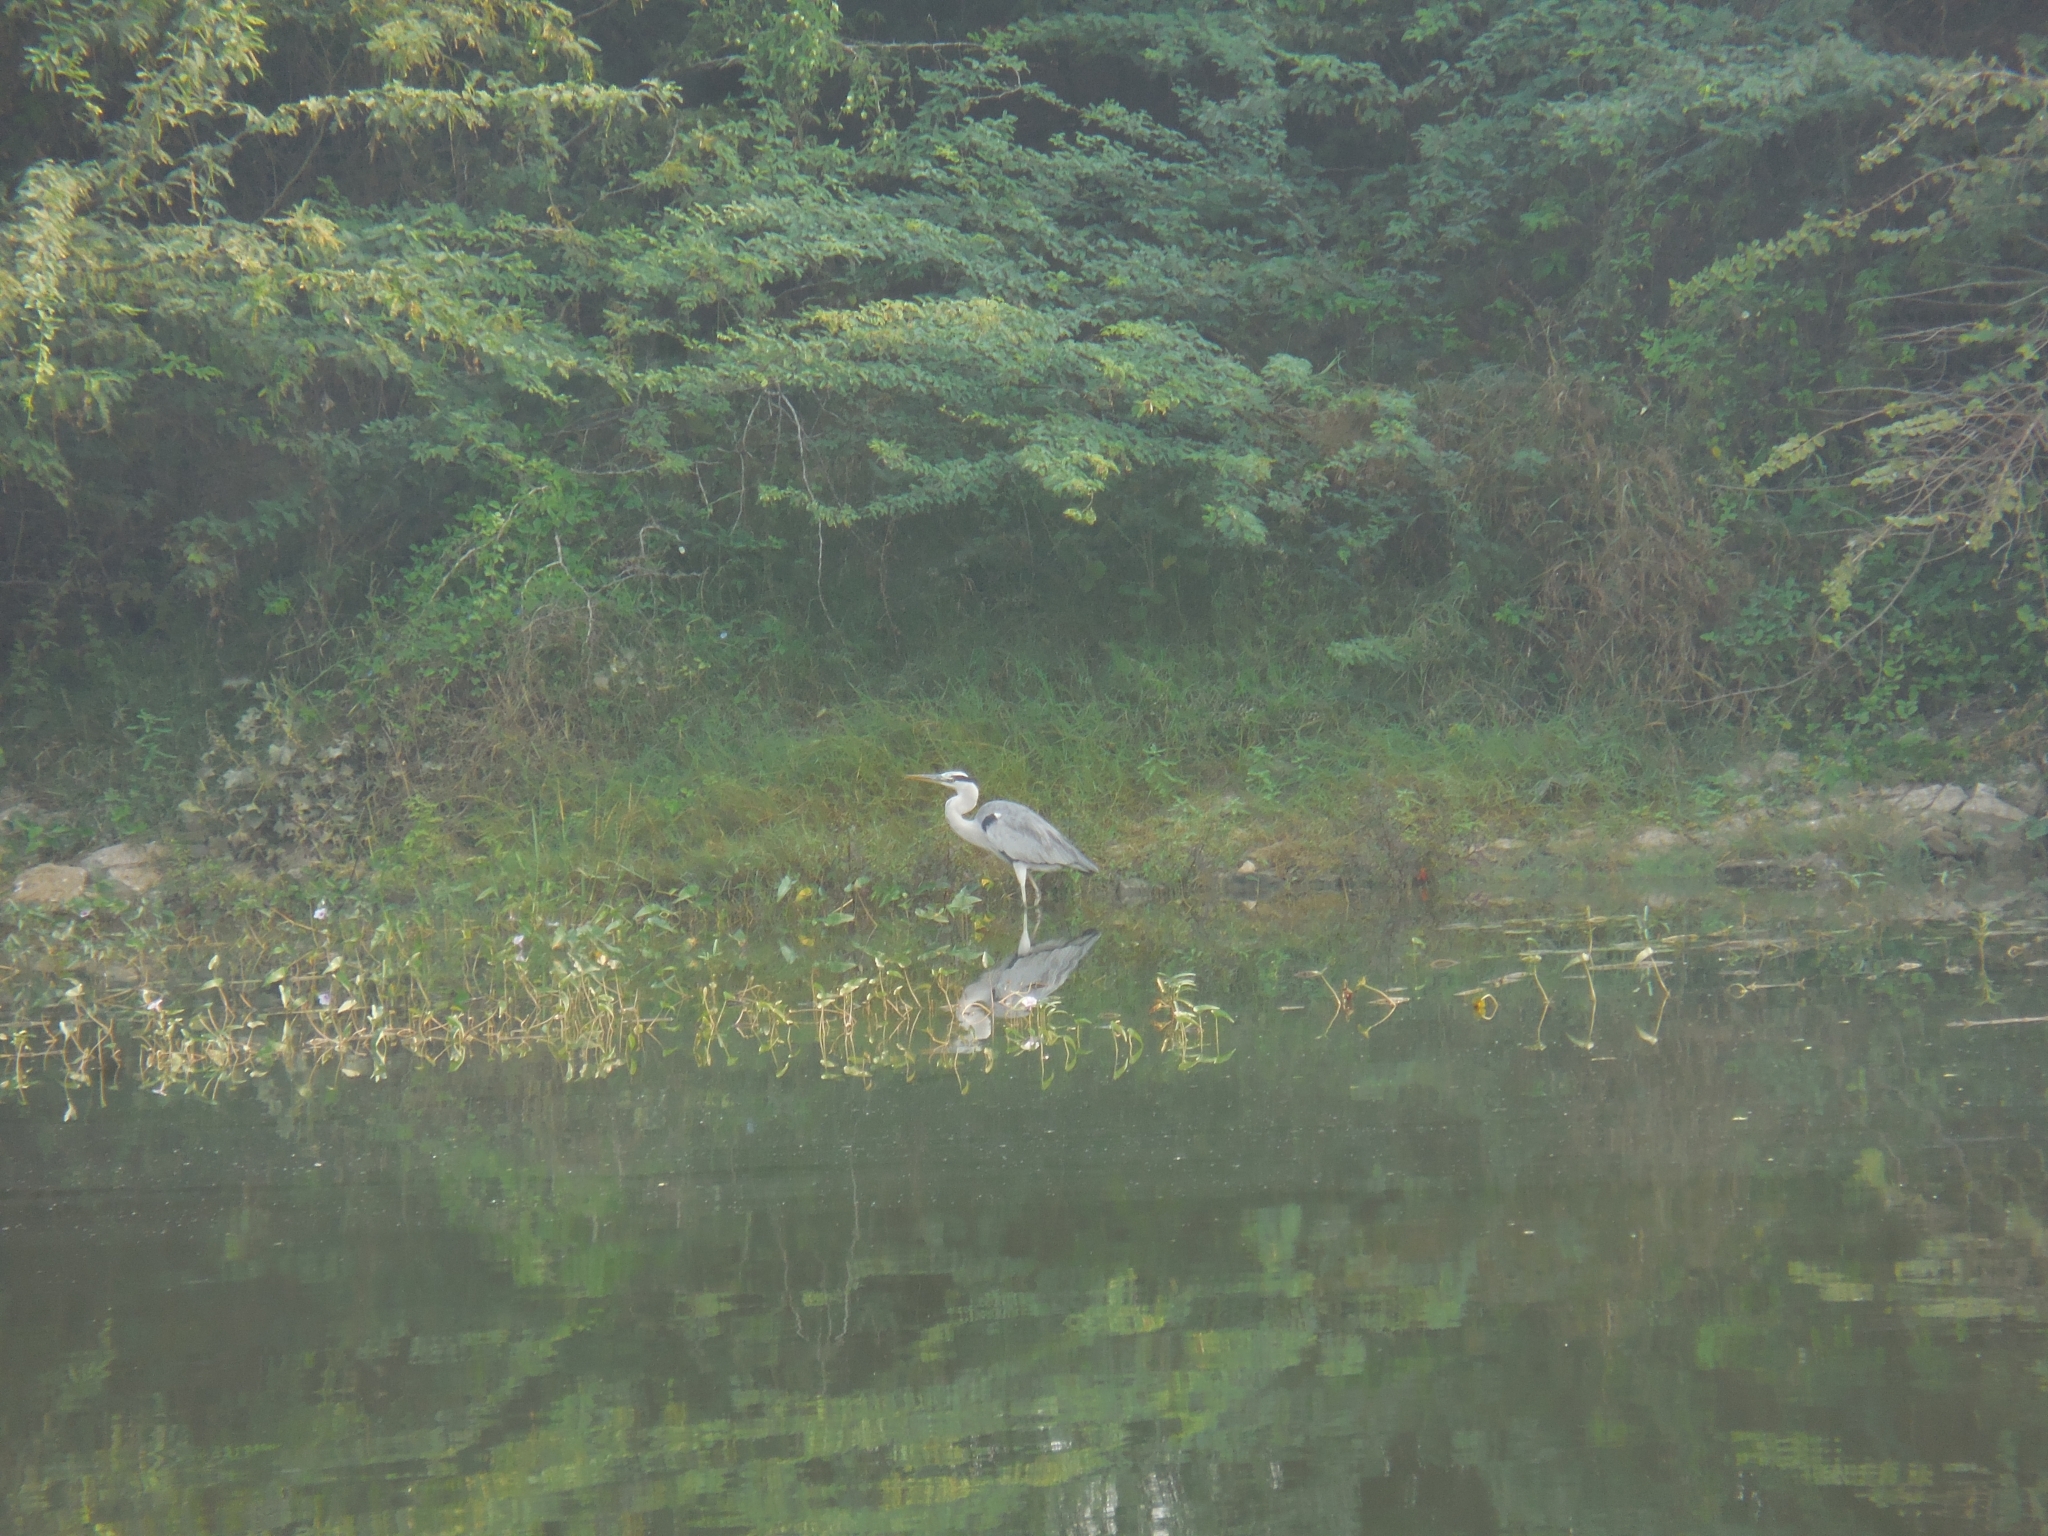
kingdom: Animalia
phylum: Chordata
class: Aves
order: Pelecaniformes
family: Ardeidae
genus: Ardea
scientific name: Ardea cinerea
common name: Grey heron
